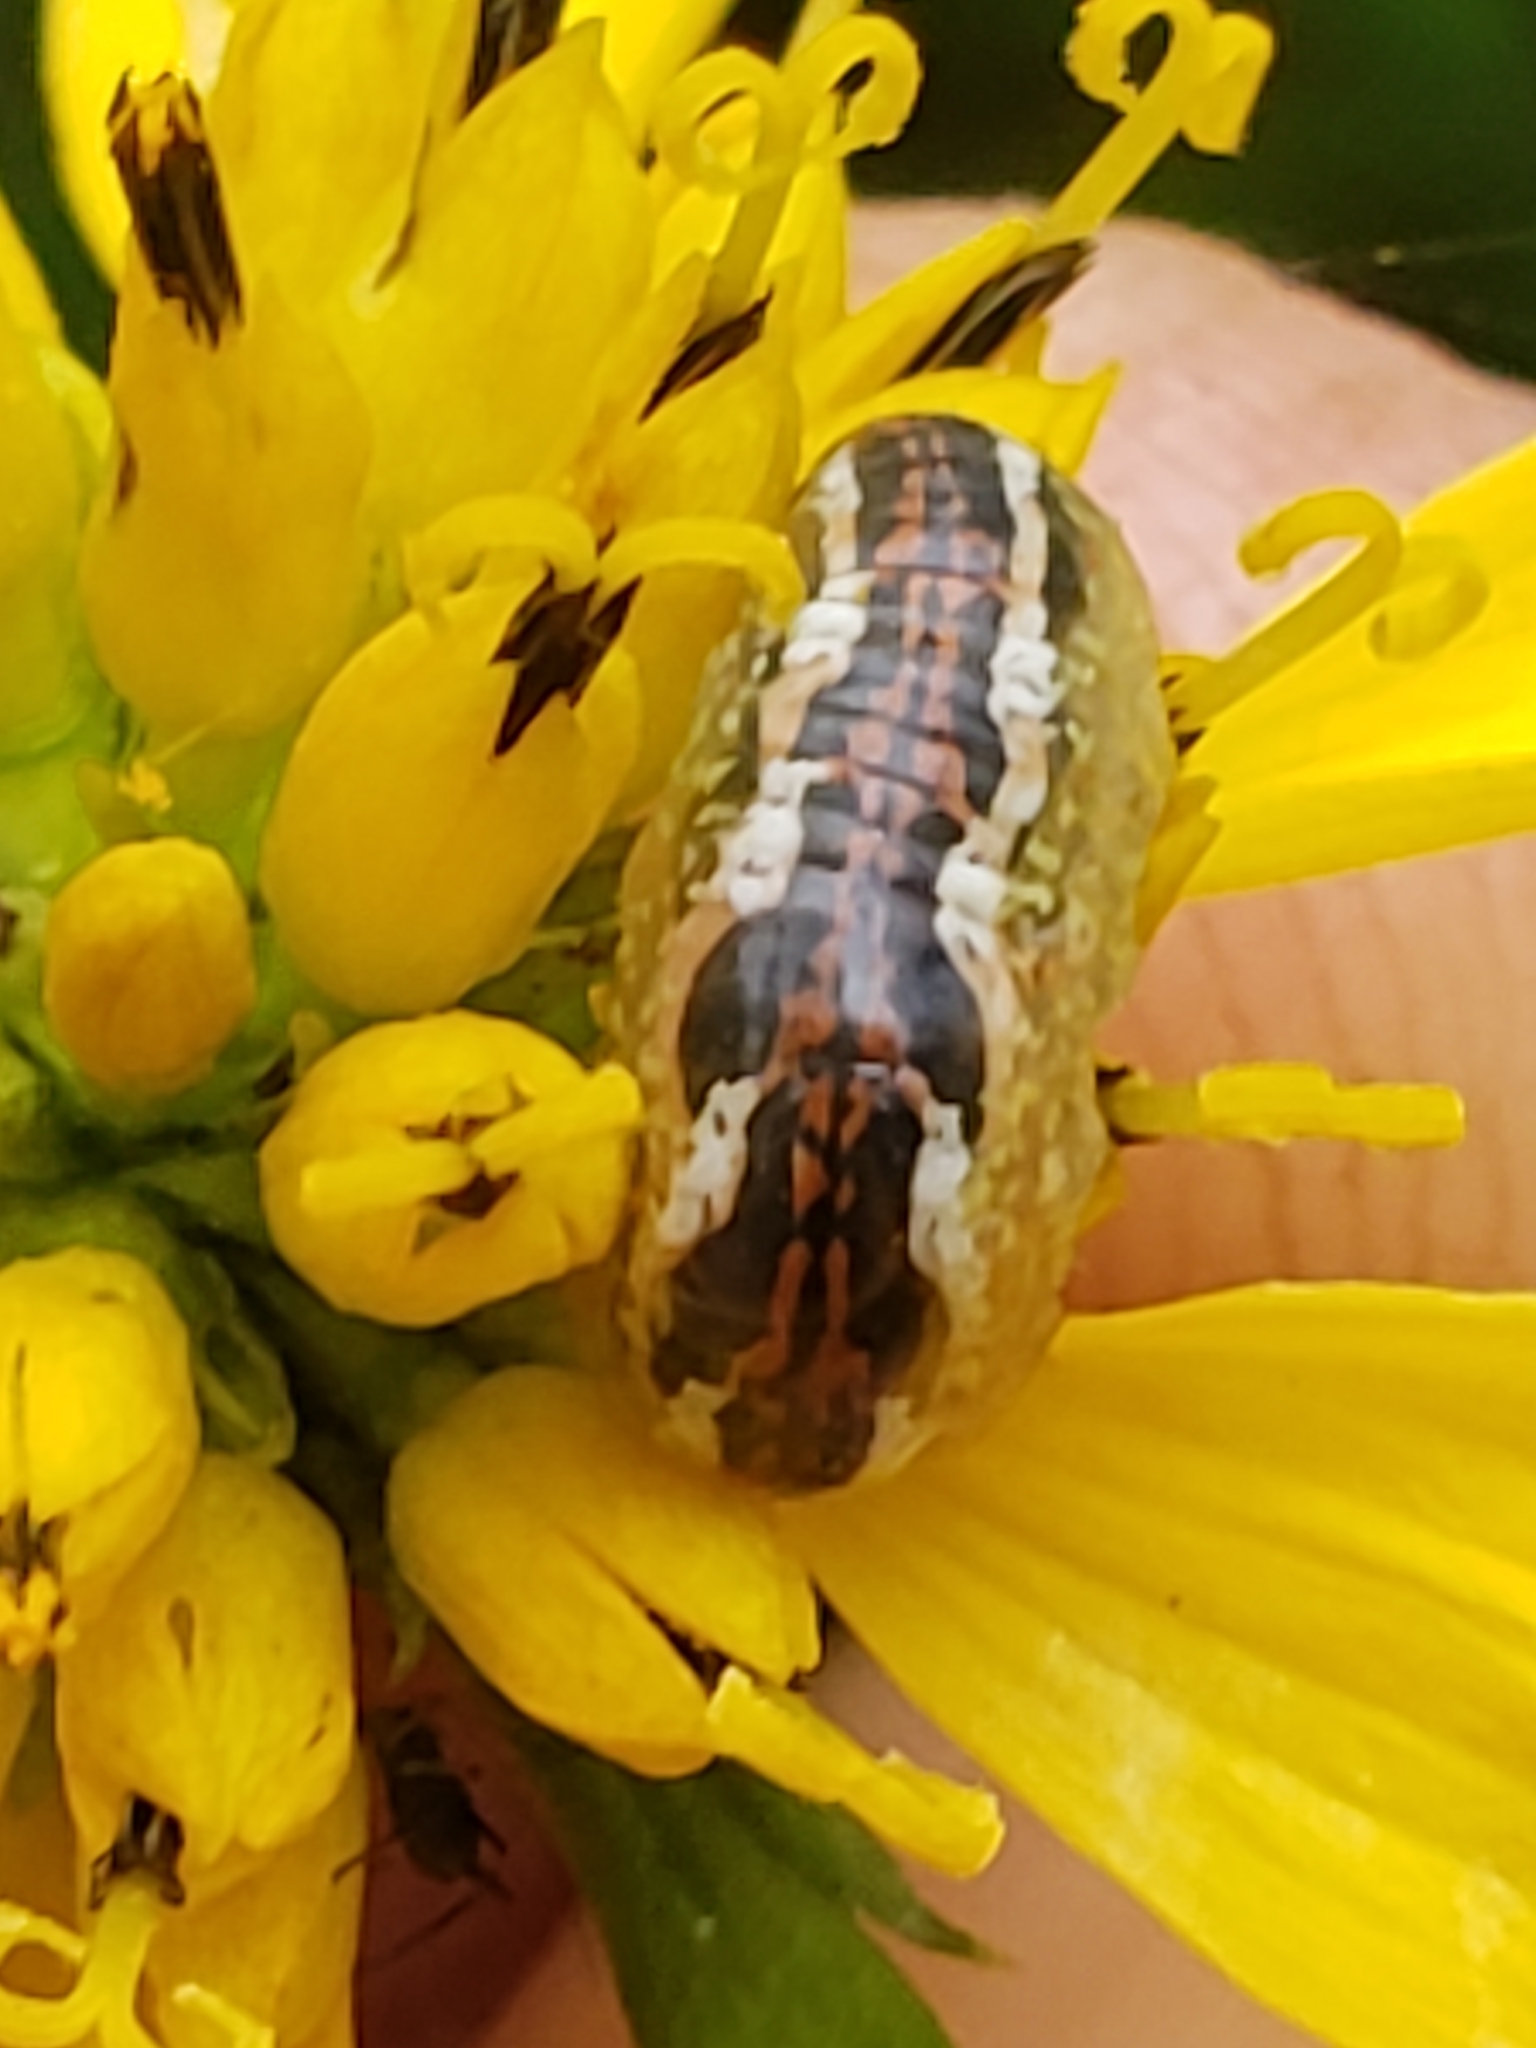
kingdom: Animalia
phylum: Arthropoda
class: Insecta
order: Diptera
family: Syrphidae
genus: Syrphus
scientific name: Syrphus
